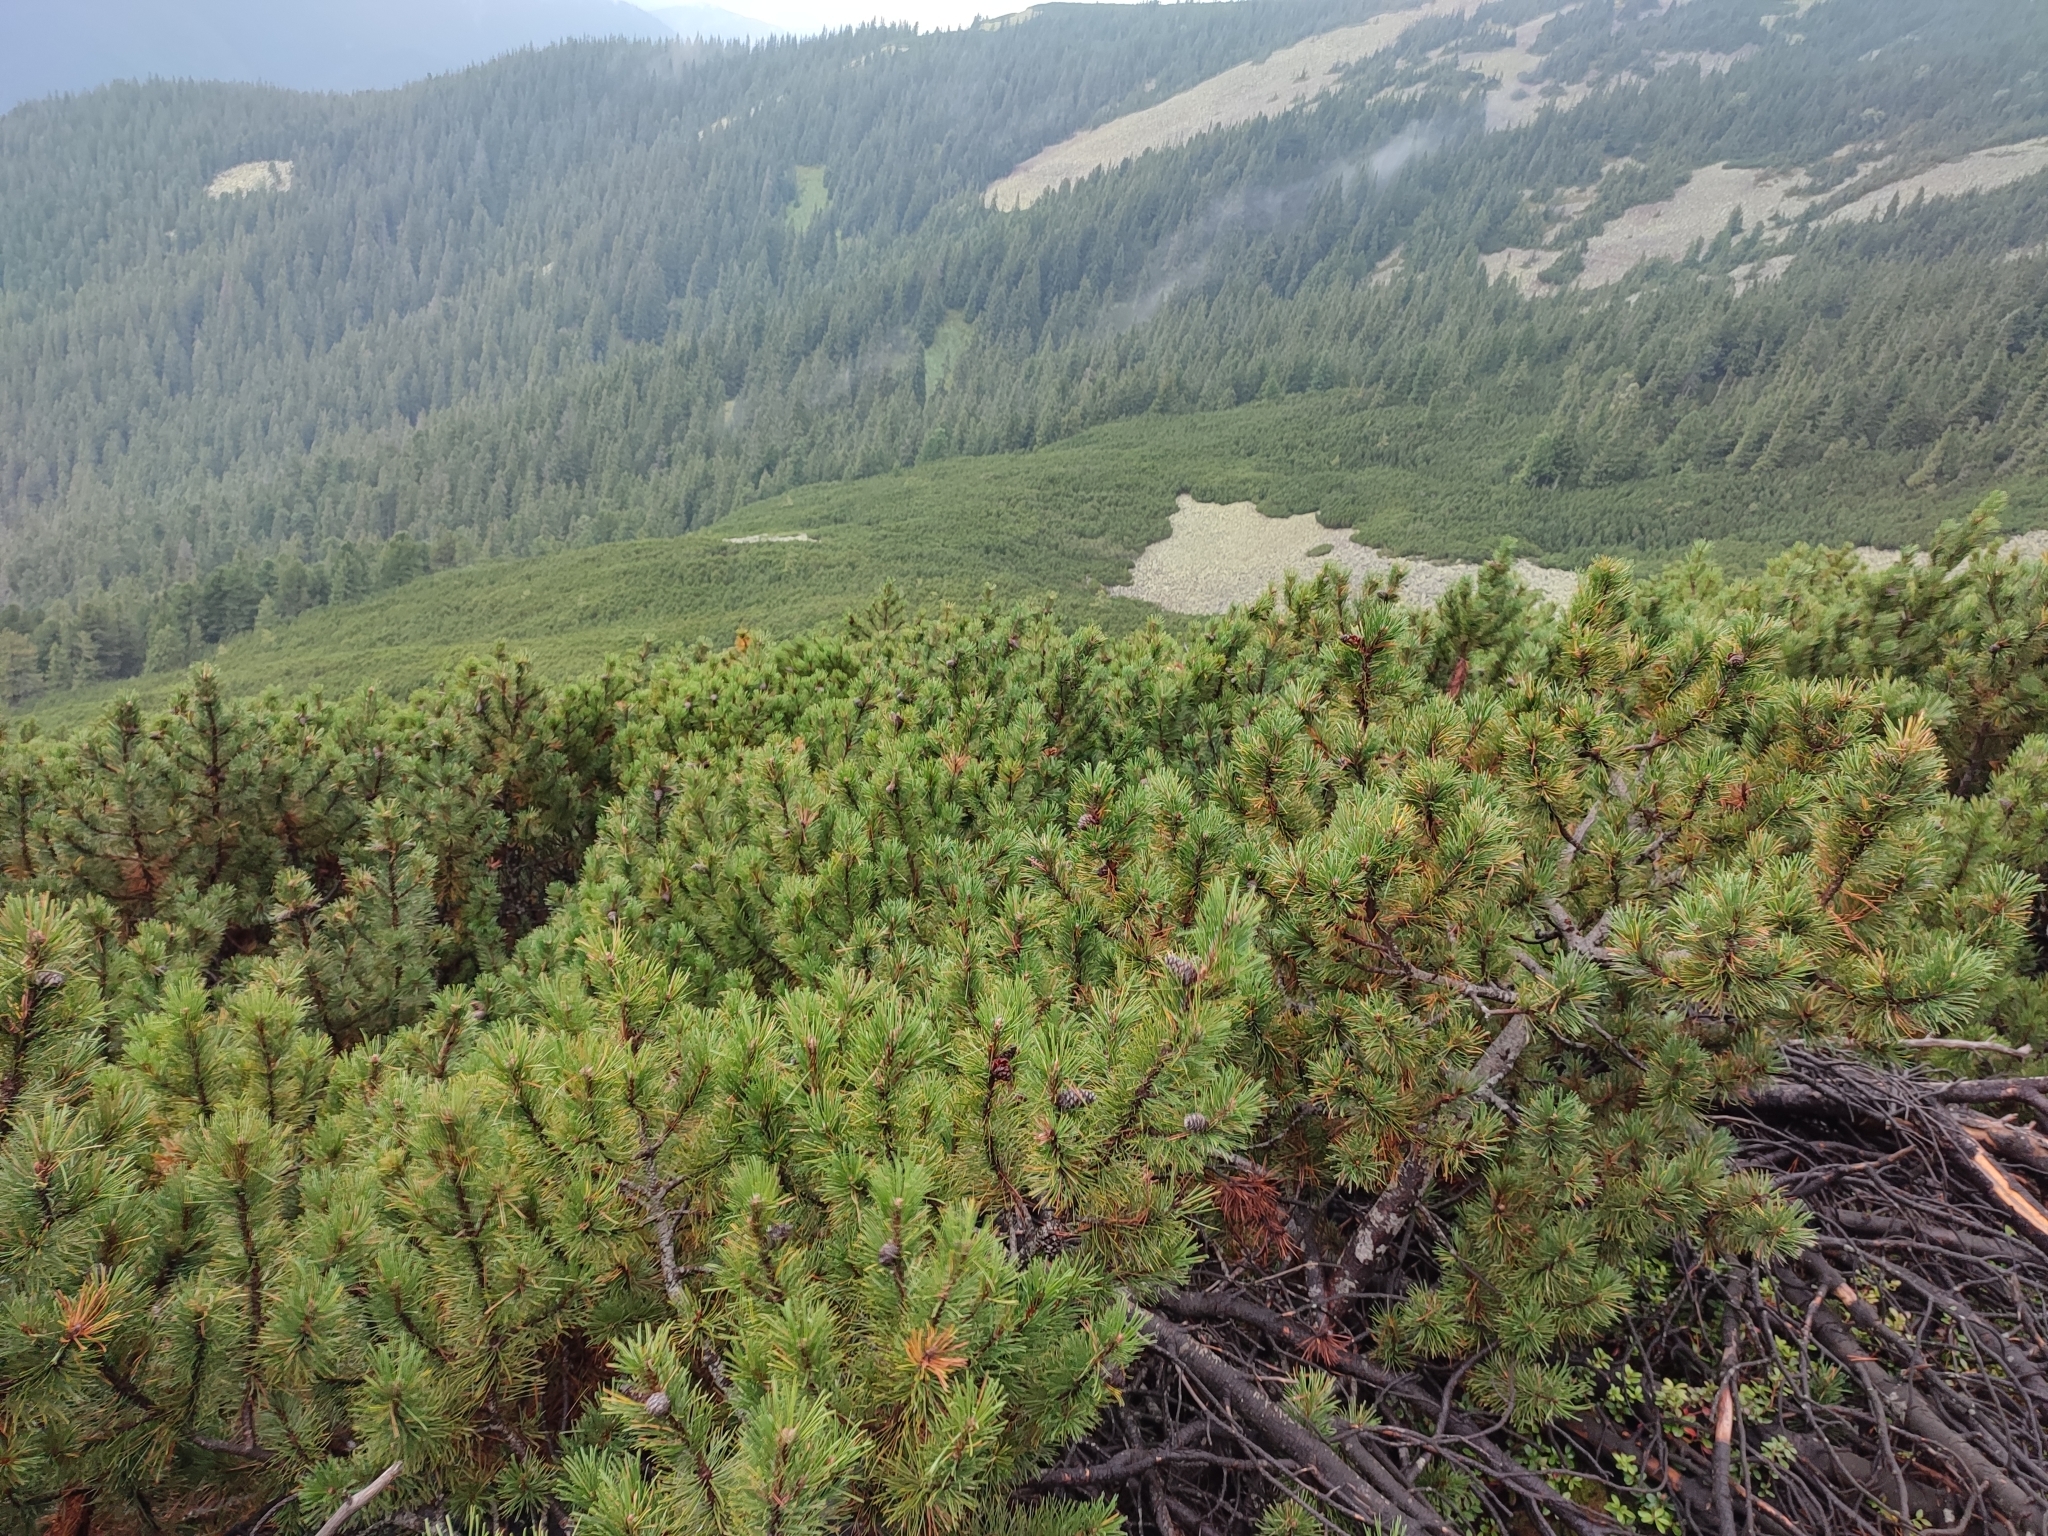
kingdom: Plantae
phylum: Tracheophyta
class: Pinopsida
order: Pinales
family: Pinaceae
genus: Pinus
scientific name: Pinus mugo
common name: Mugo pine
